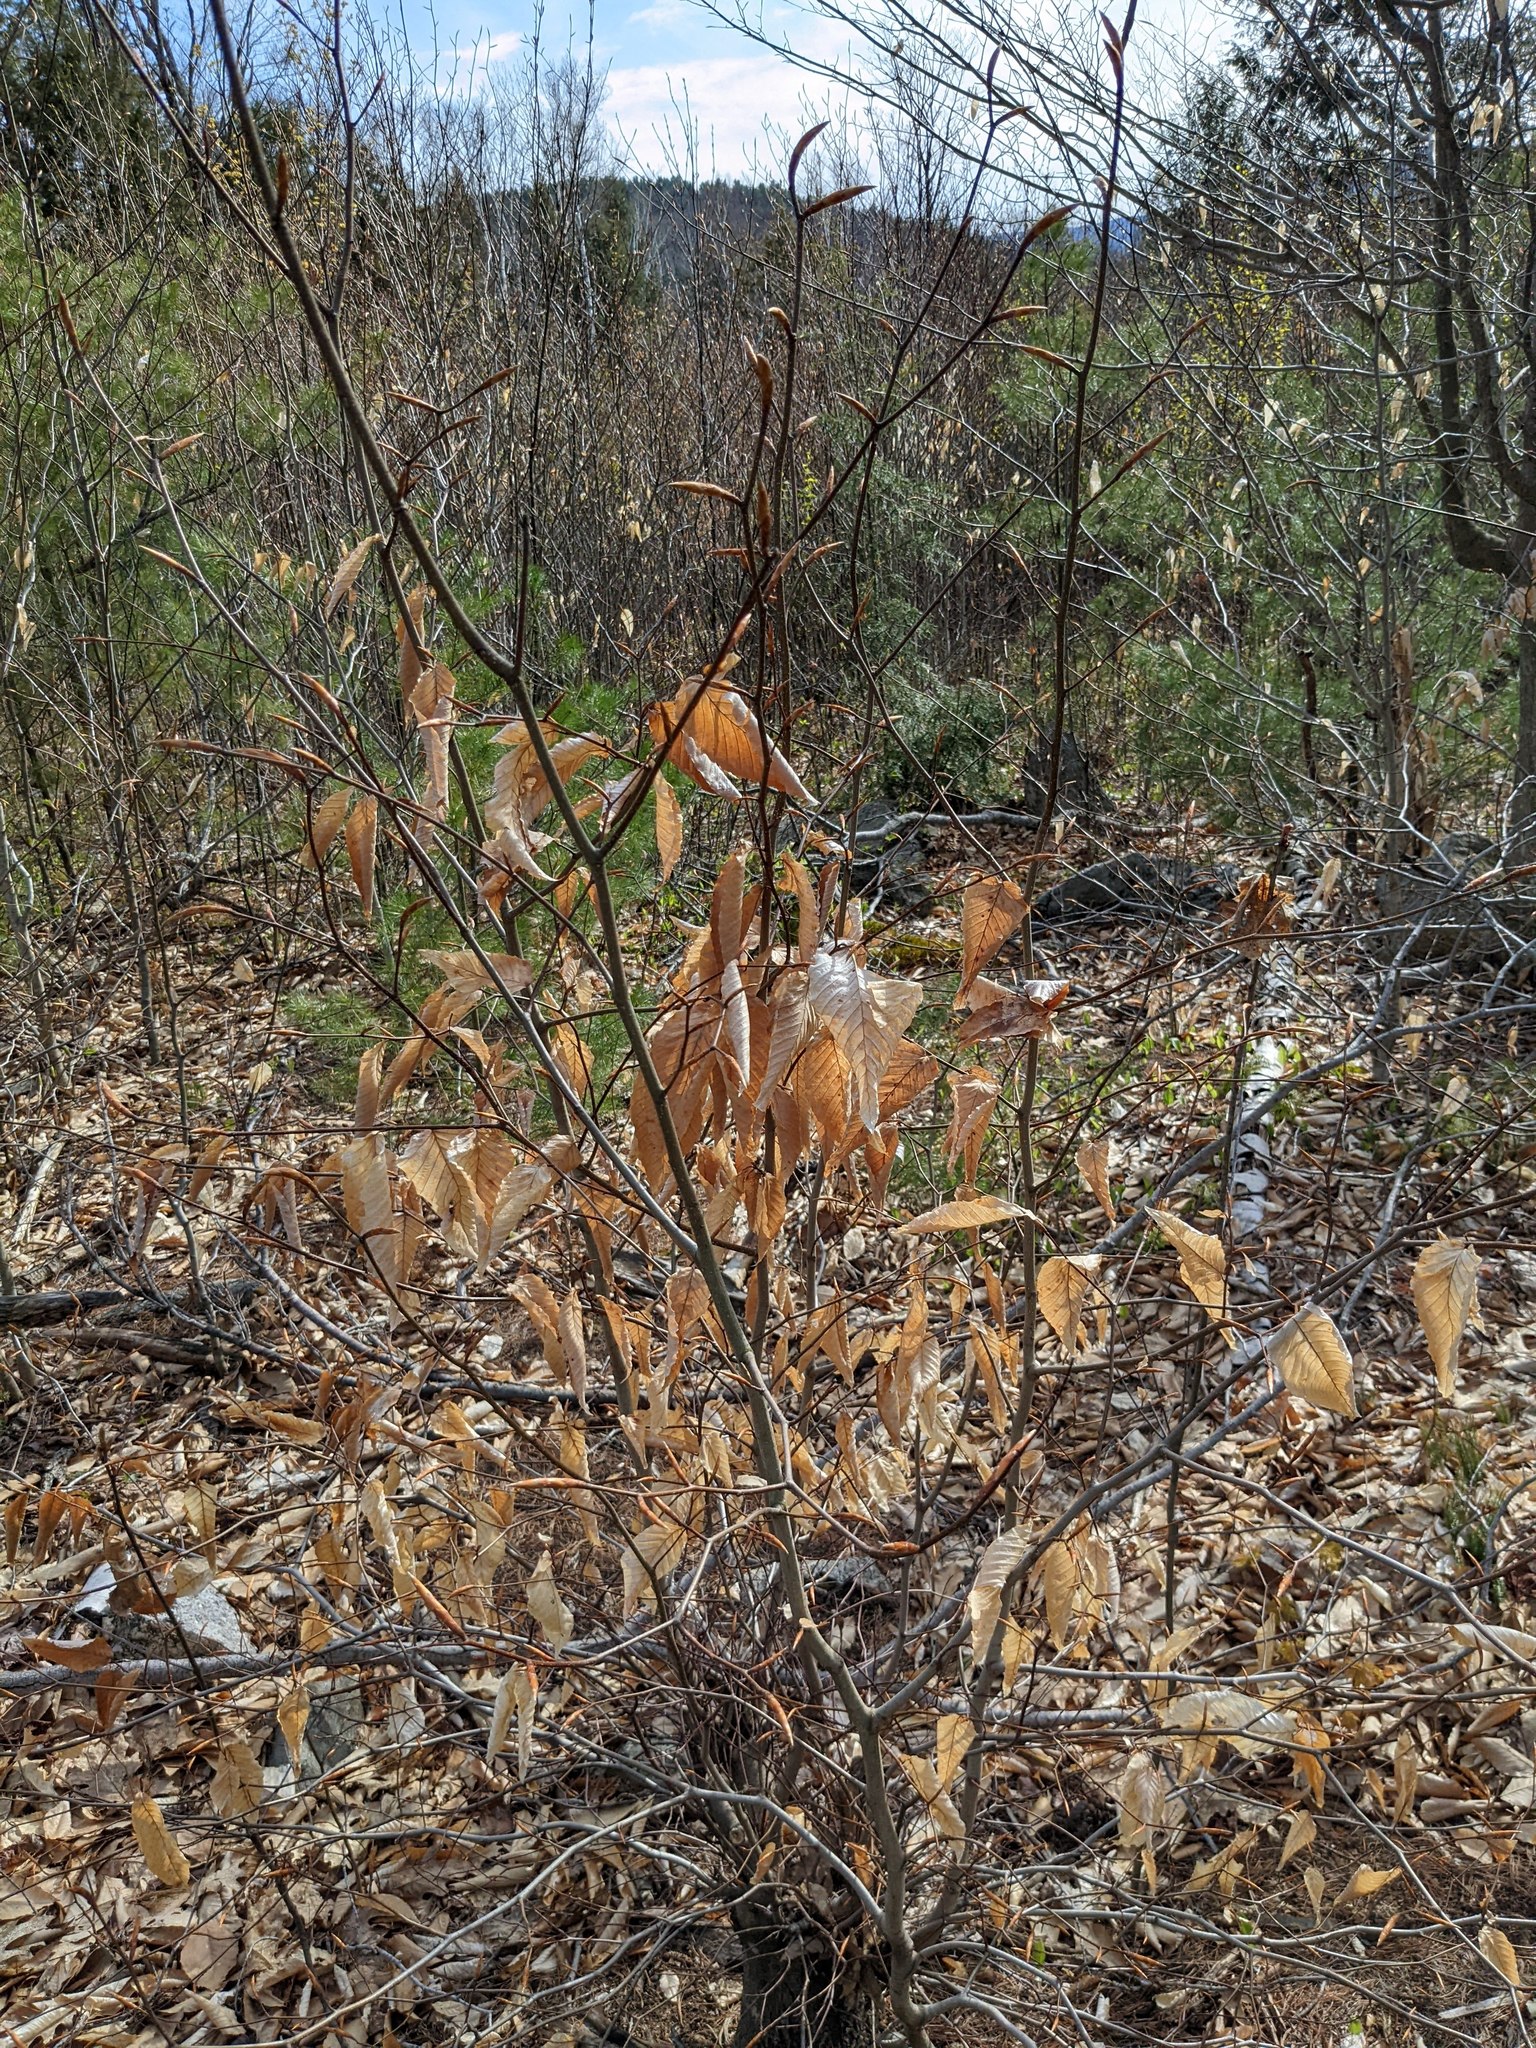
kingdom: Plantae
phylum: Tracheophyta
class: Magnoliopsida
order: Fagales
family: Fagaceae
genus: Fagus
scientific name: Fagus grandifolia
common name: American beech
